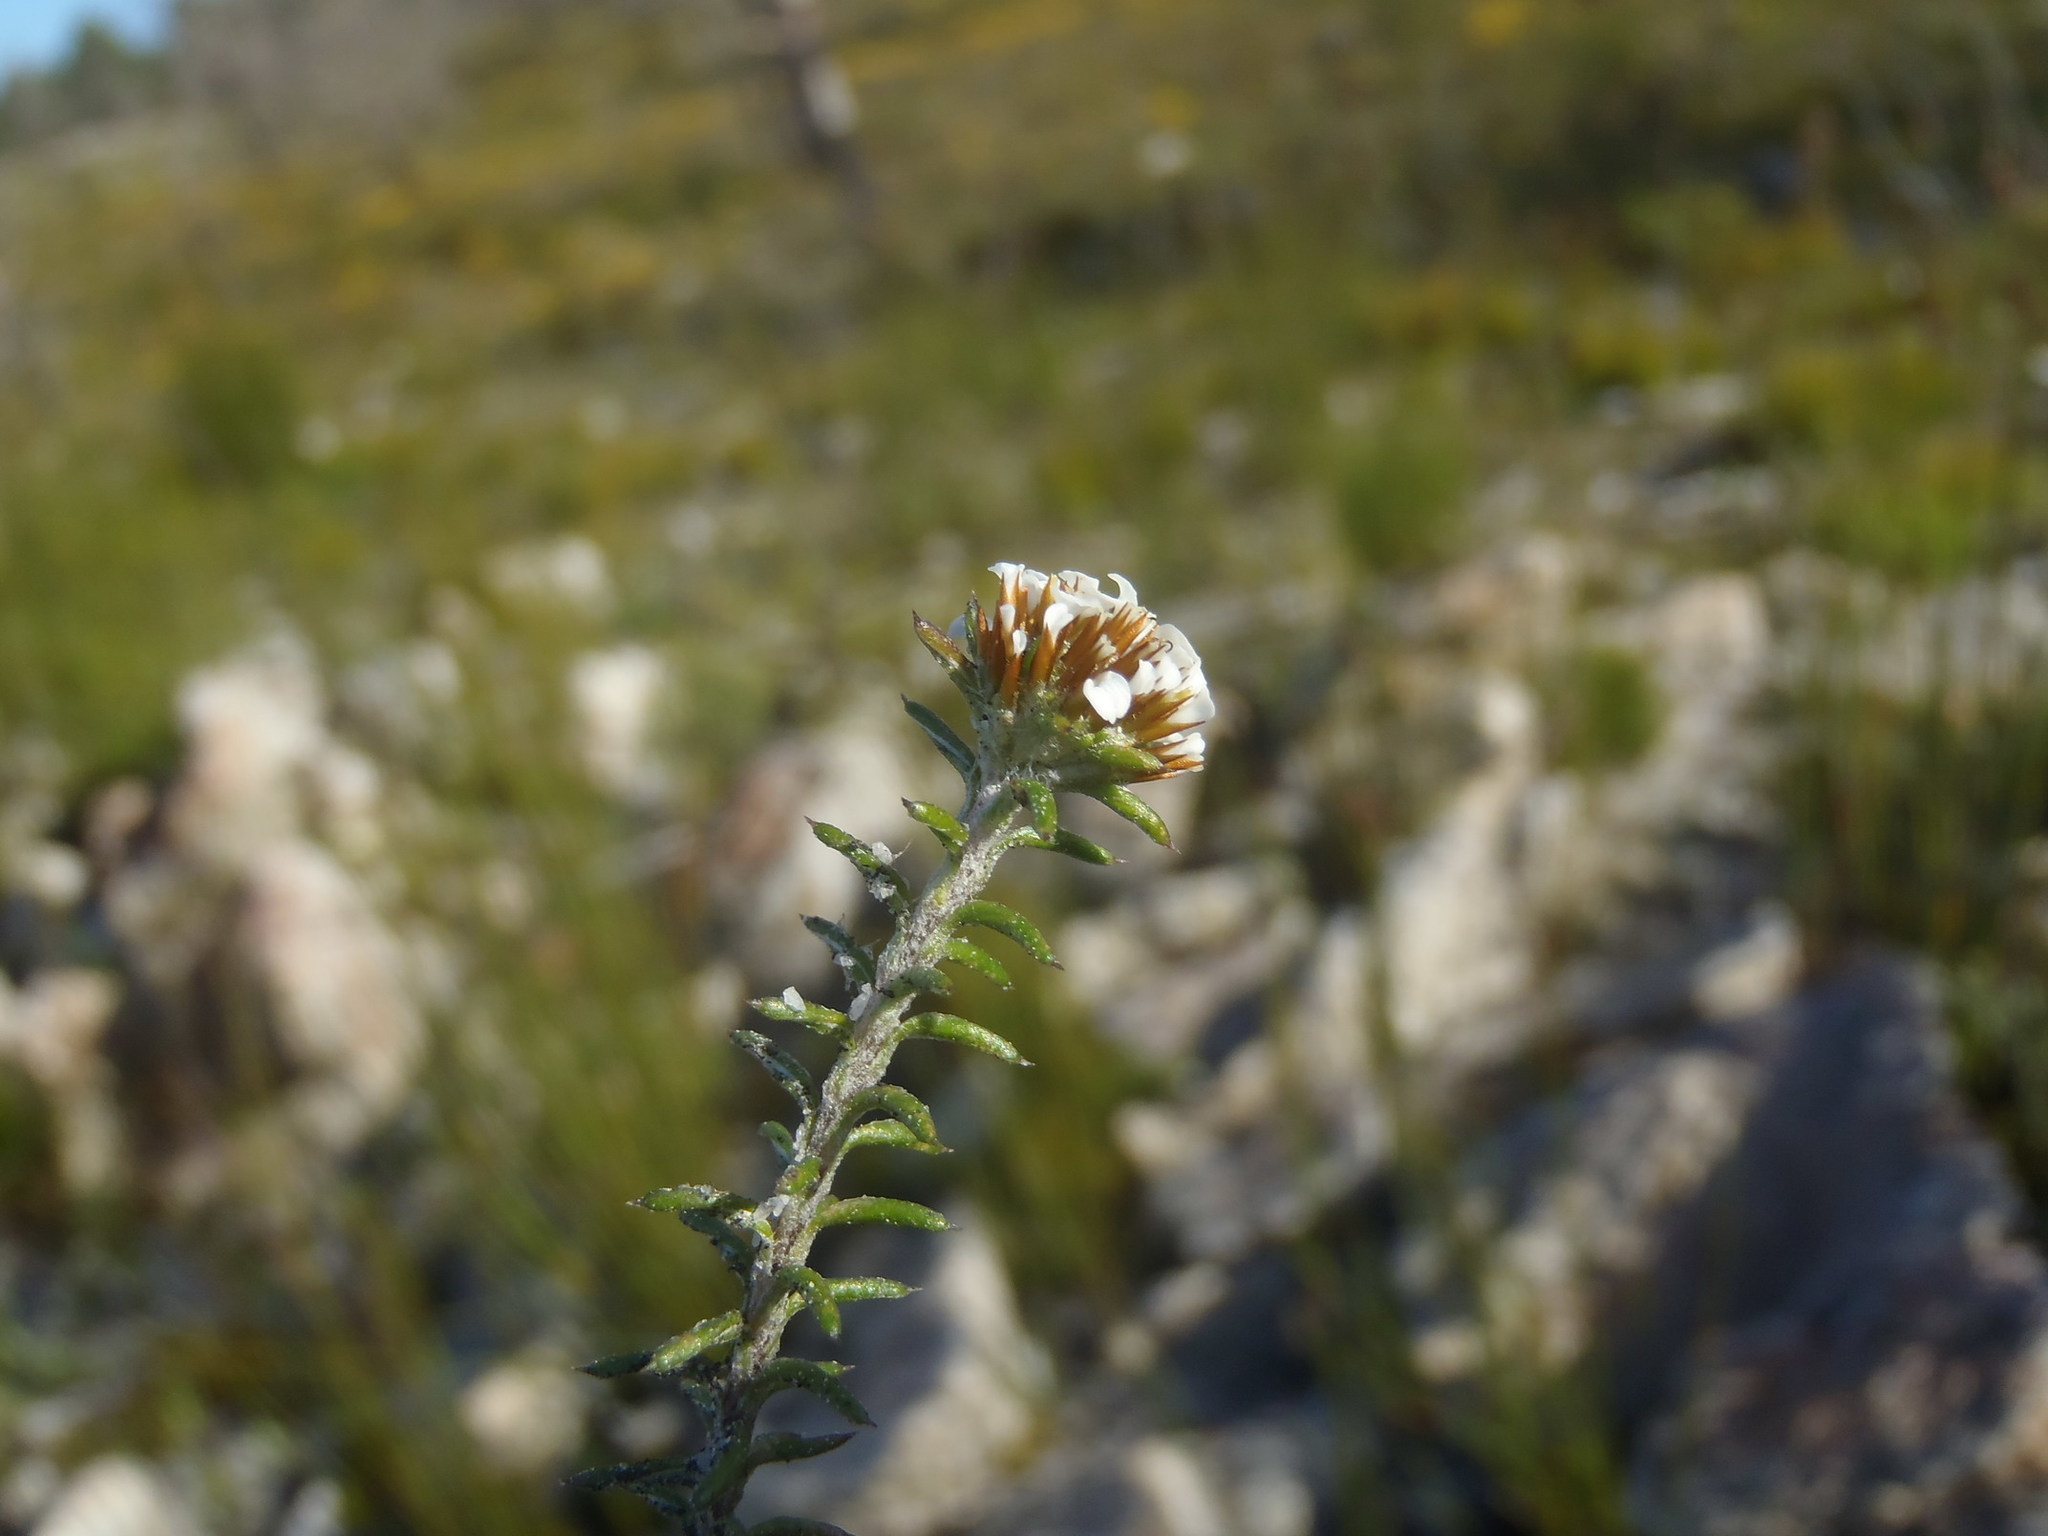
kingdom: Plantae
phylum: Tracheophyta
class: Magnoliopsida
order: Asterales
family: Asteraceae
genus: Disparago
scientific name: Disparago laxifolia
